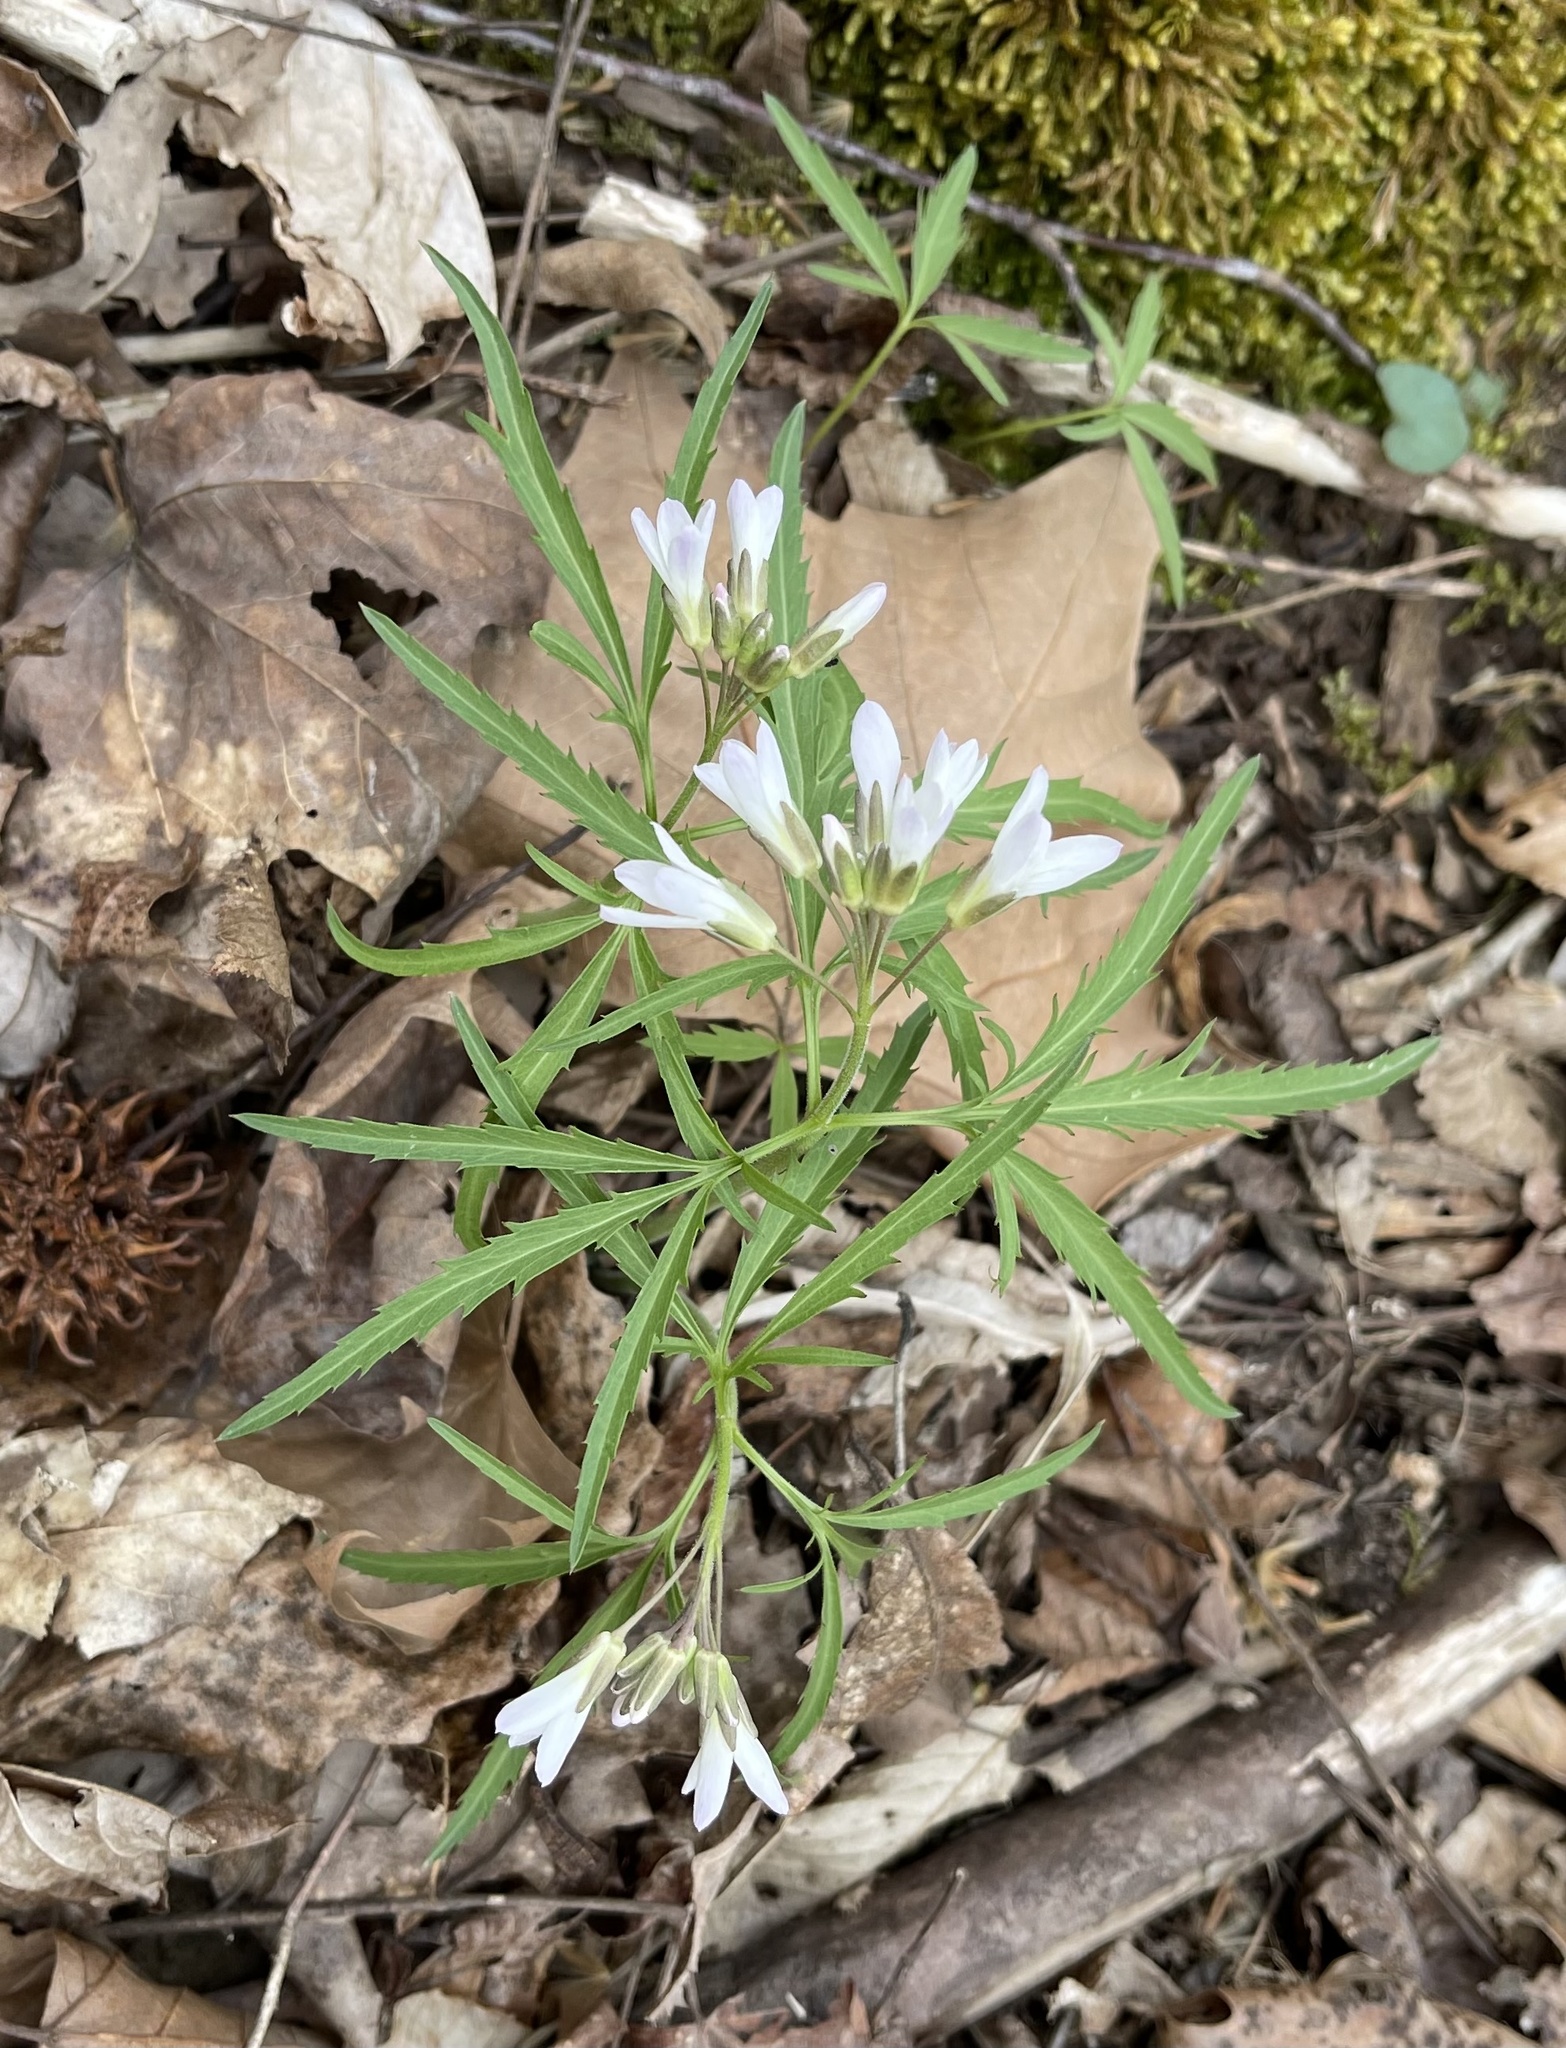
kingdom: Plantae
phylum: Tracheophyta
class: Magnoliopsida
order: Brassicales
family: Brassicaceae
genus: Cardamine
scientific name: Cardamine concatenata
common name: Cut-leaf toothcup
